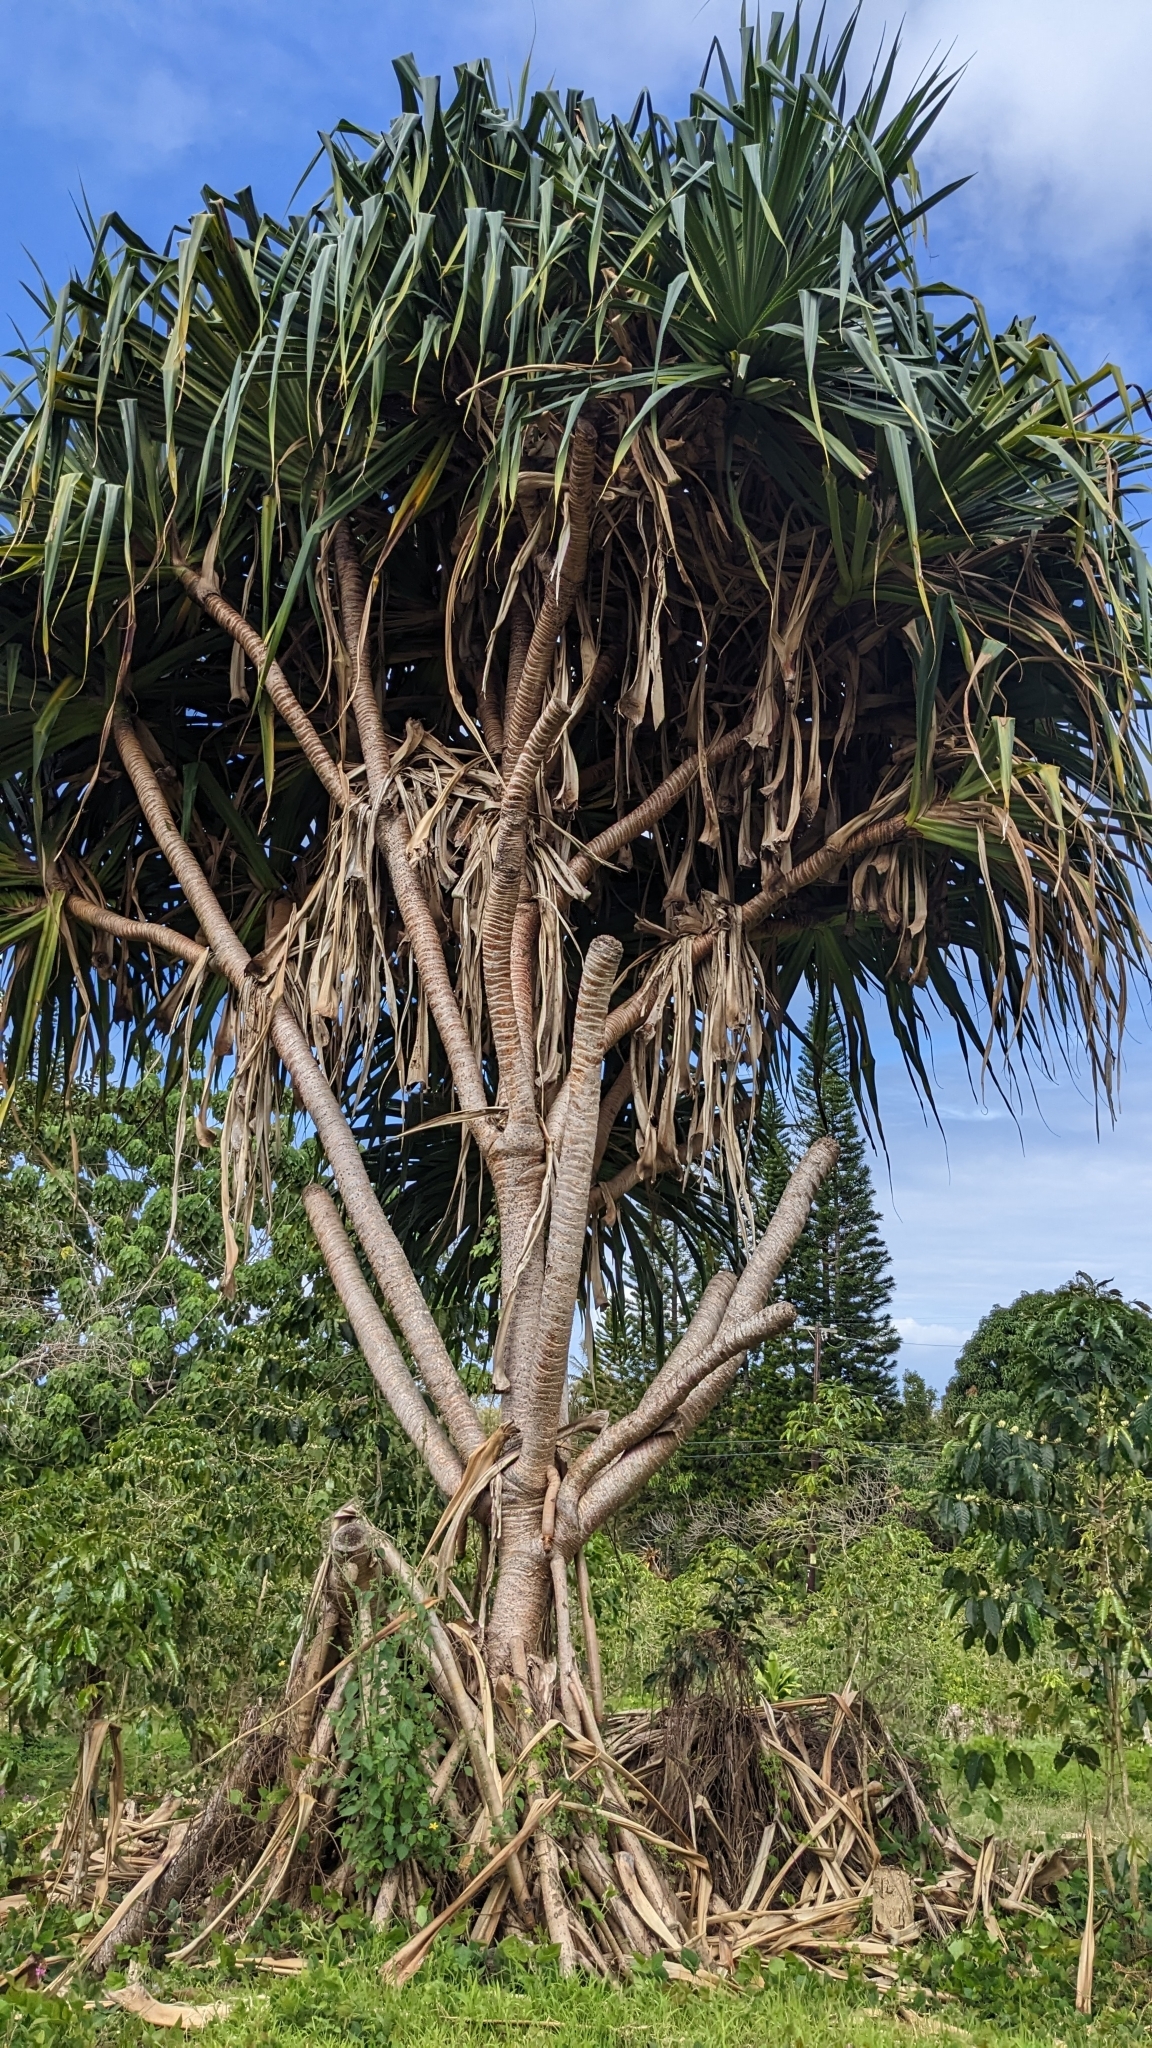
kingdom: Plantae
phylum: Tracheophyta
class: Liliopsida
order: Pandanales
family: Pandanaceae
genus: Pandanus
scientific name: Pandanus tectorius
